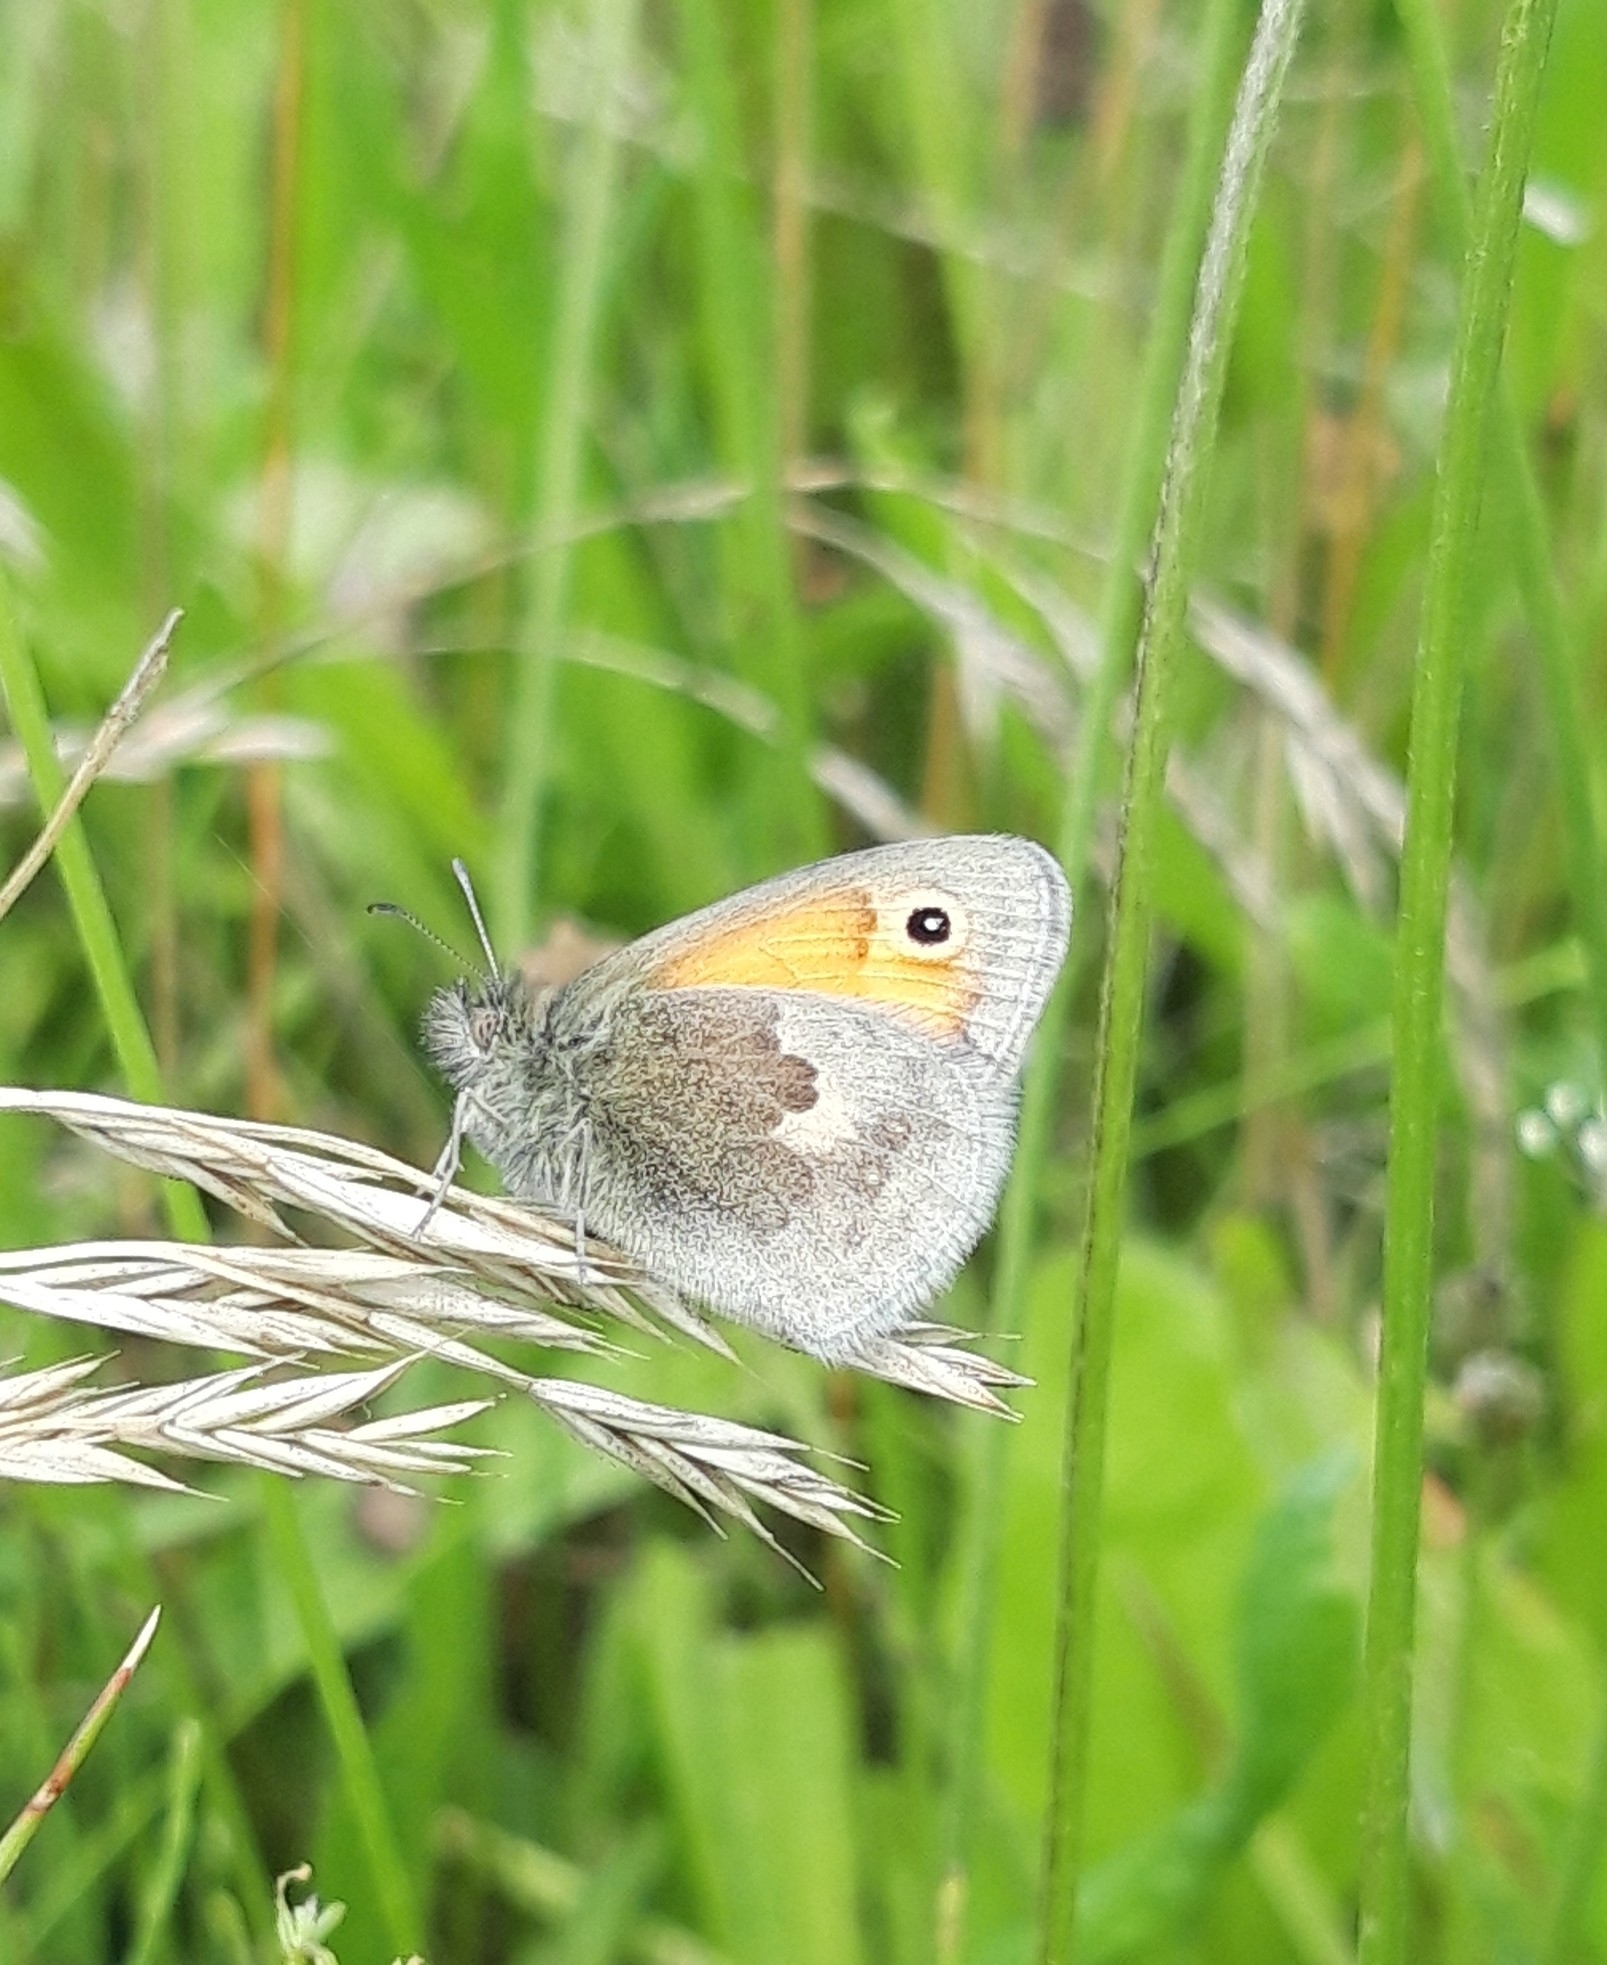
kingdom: Animalia
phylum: Arthropoda
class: Insecta
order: Lepidoptera
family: Nymphalidae
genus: Coenonympha
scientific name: Coenonympha pamphilus
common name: Small heath
